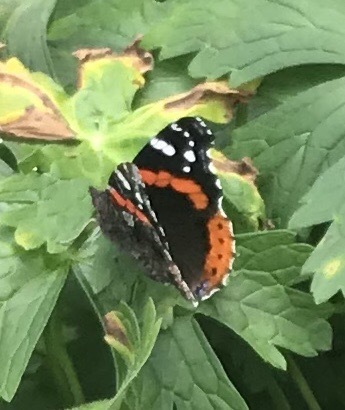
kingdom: Animalia
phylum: Arthropoda
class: Insecta
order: Lepidoptera
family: Nymphalidae
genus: Vanessa
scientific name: Vanessa atalanta
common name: Red admiral
